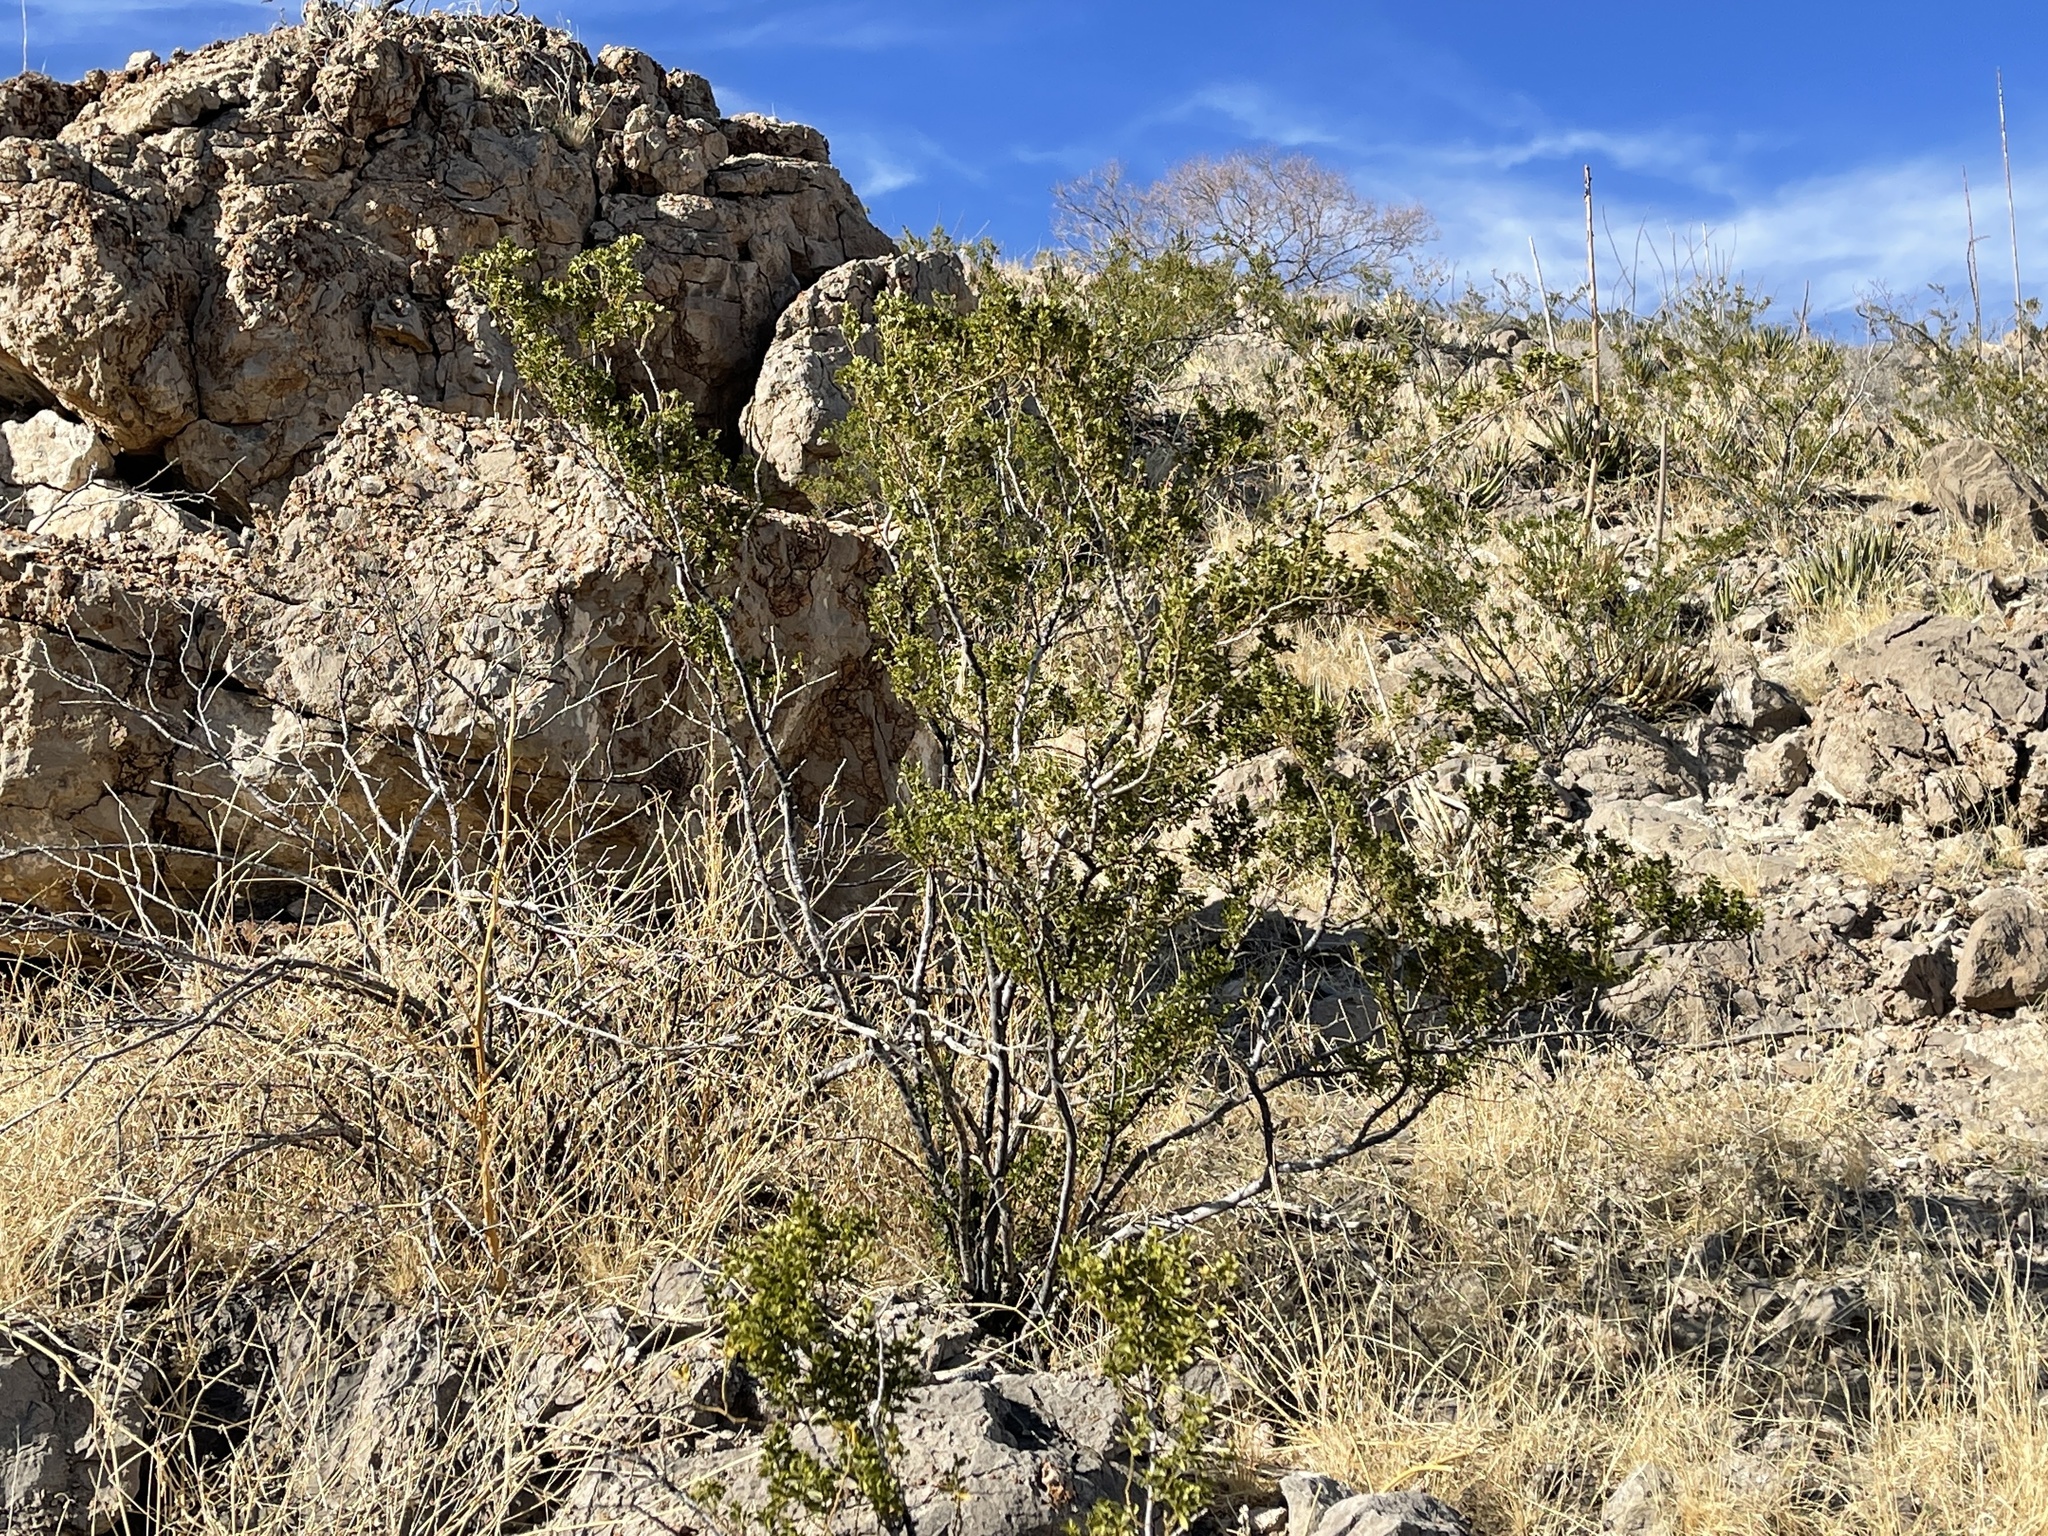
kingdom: Plantae
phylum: Tracheophyta
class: Magnoliopsida
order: Zygophyllales
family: Zygophyllaceae
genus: Larrea
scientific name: Larrea tridentata
